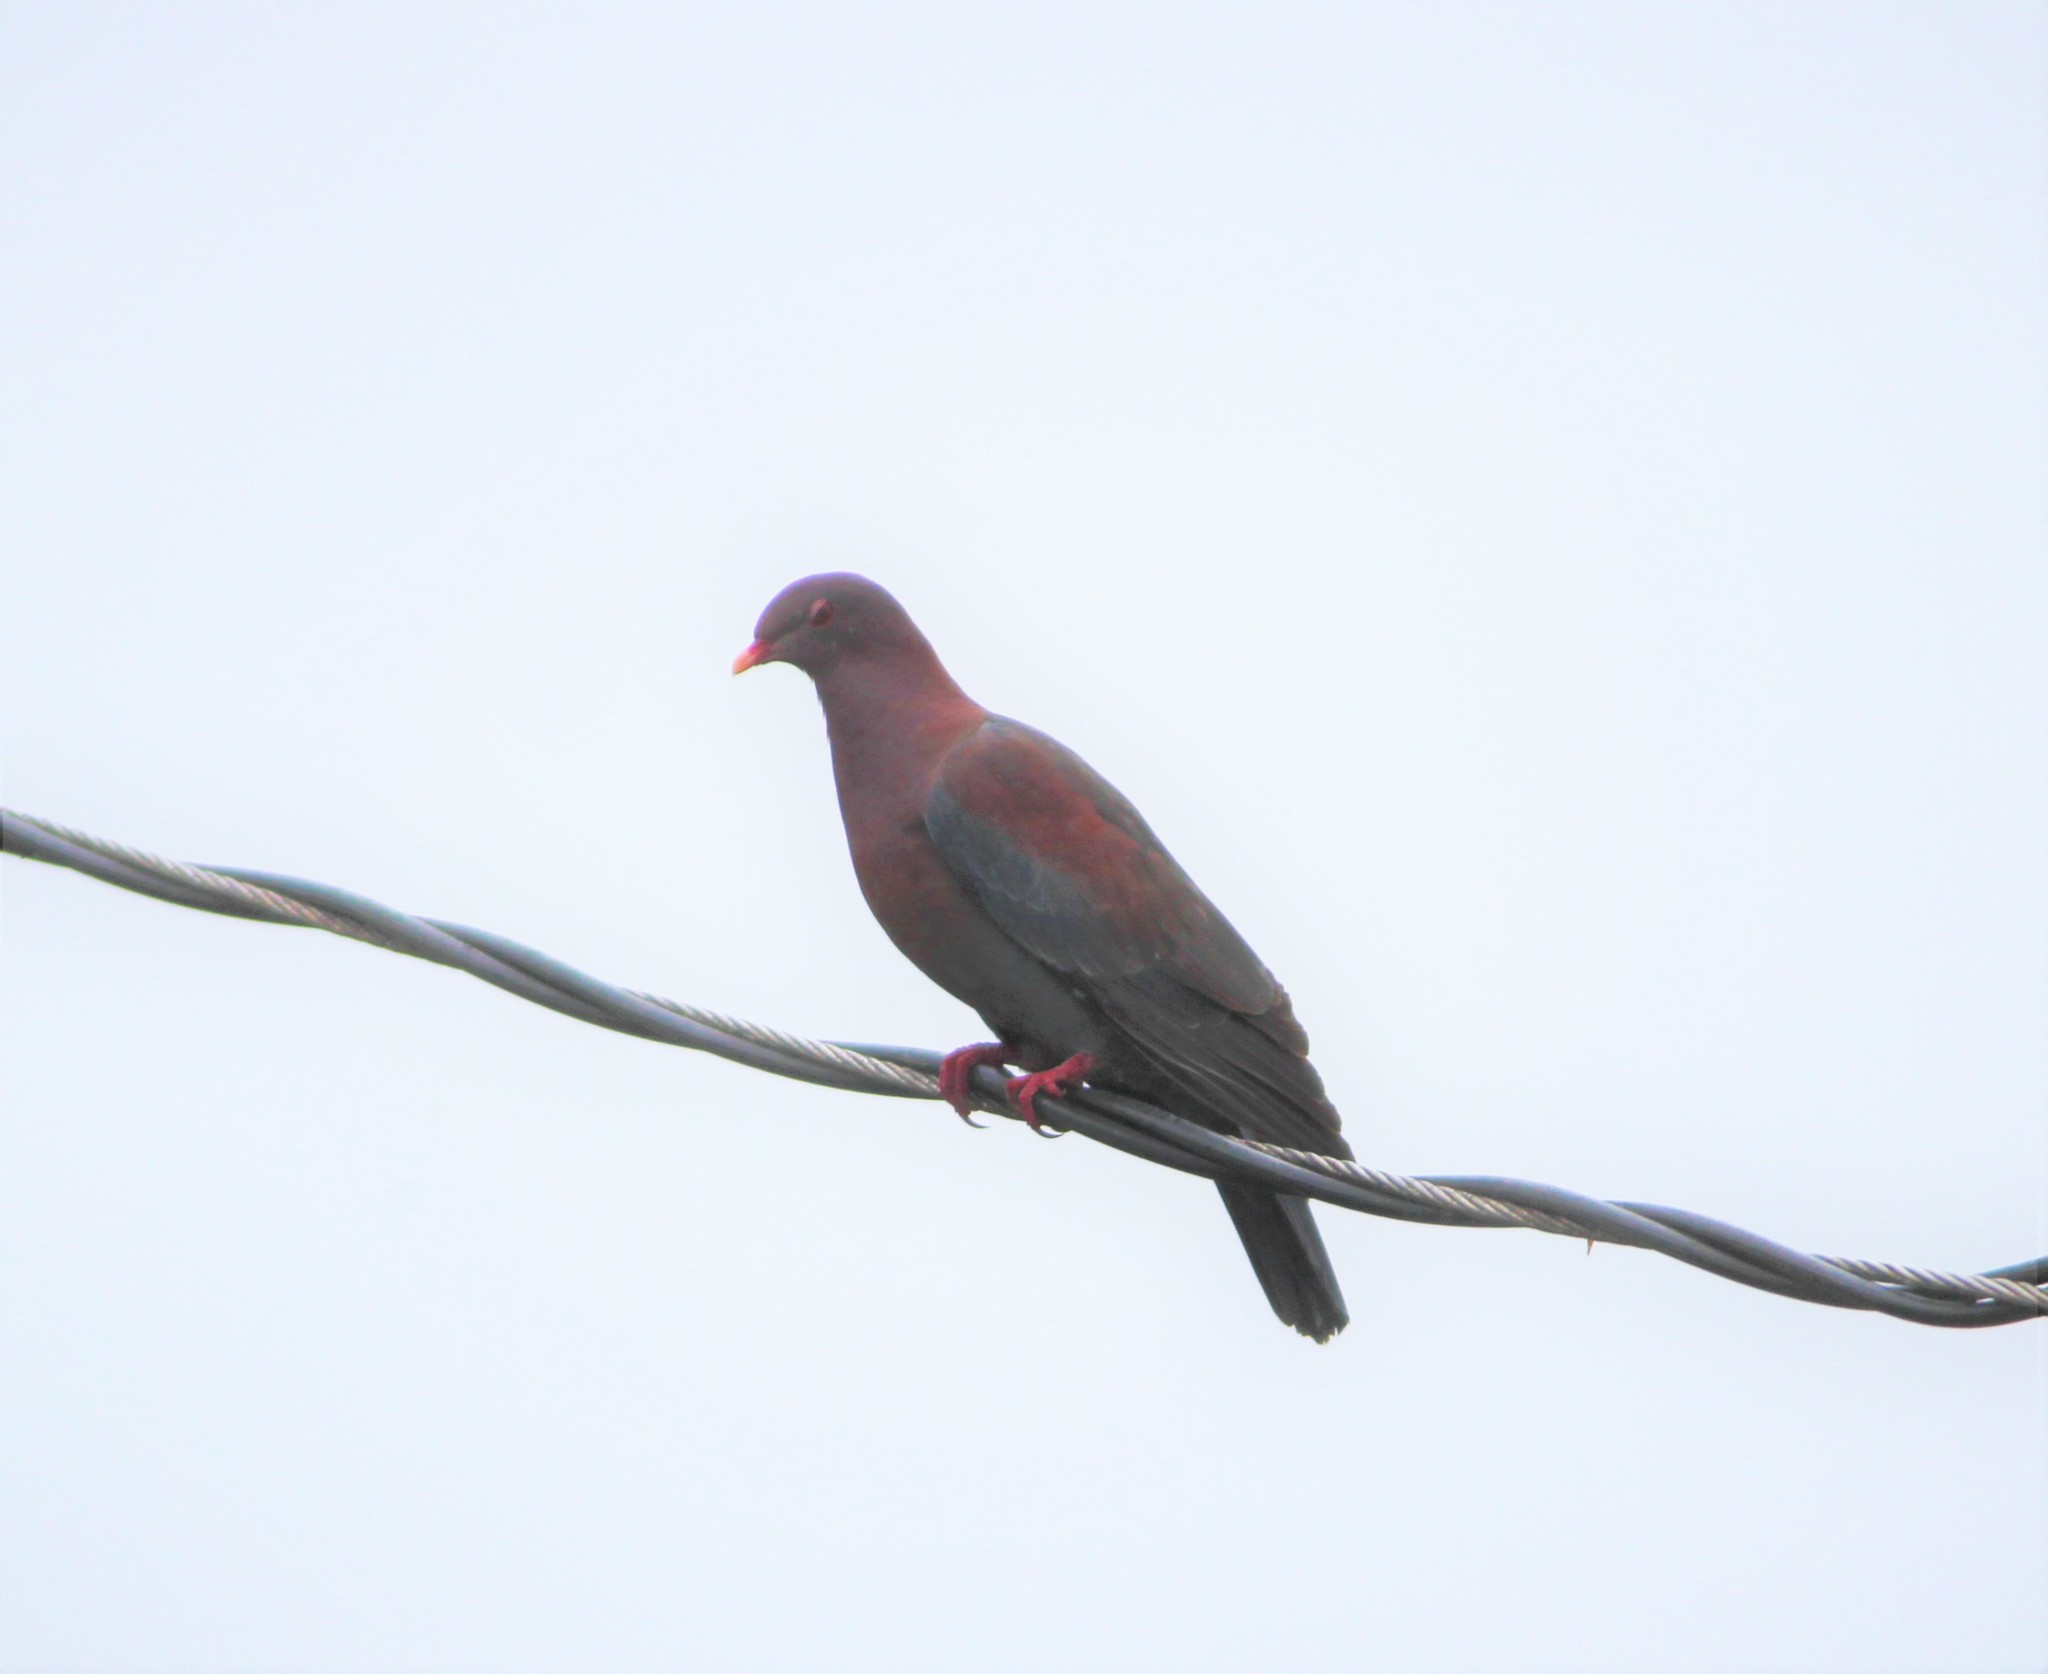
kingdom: Animalia
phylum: Chordata
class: Aves
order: Columbiformes
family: Columbidae
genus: Patagioenas
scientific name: Patagioenas flavirostris
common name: Red-billed pigeon
